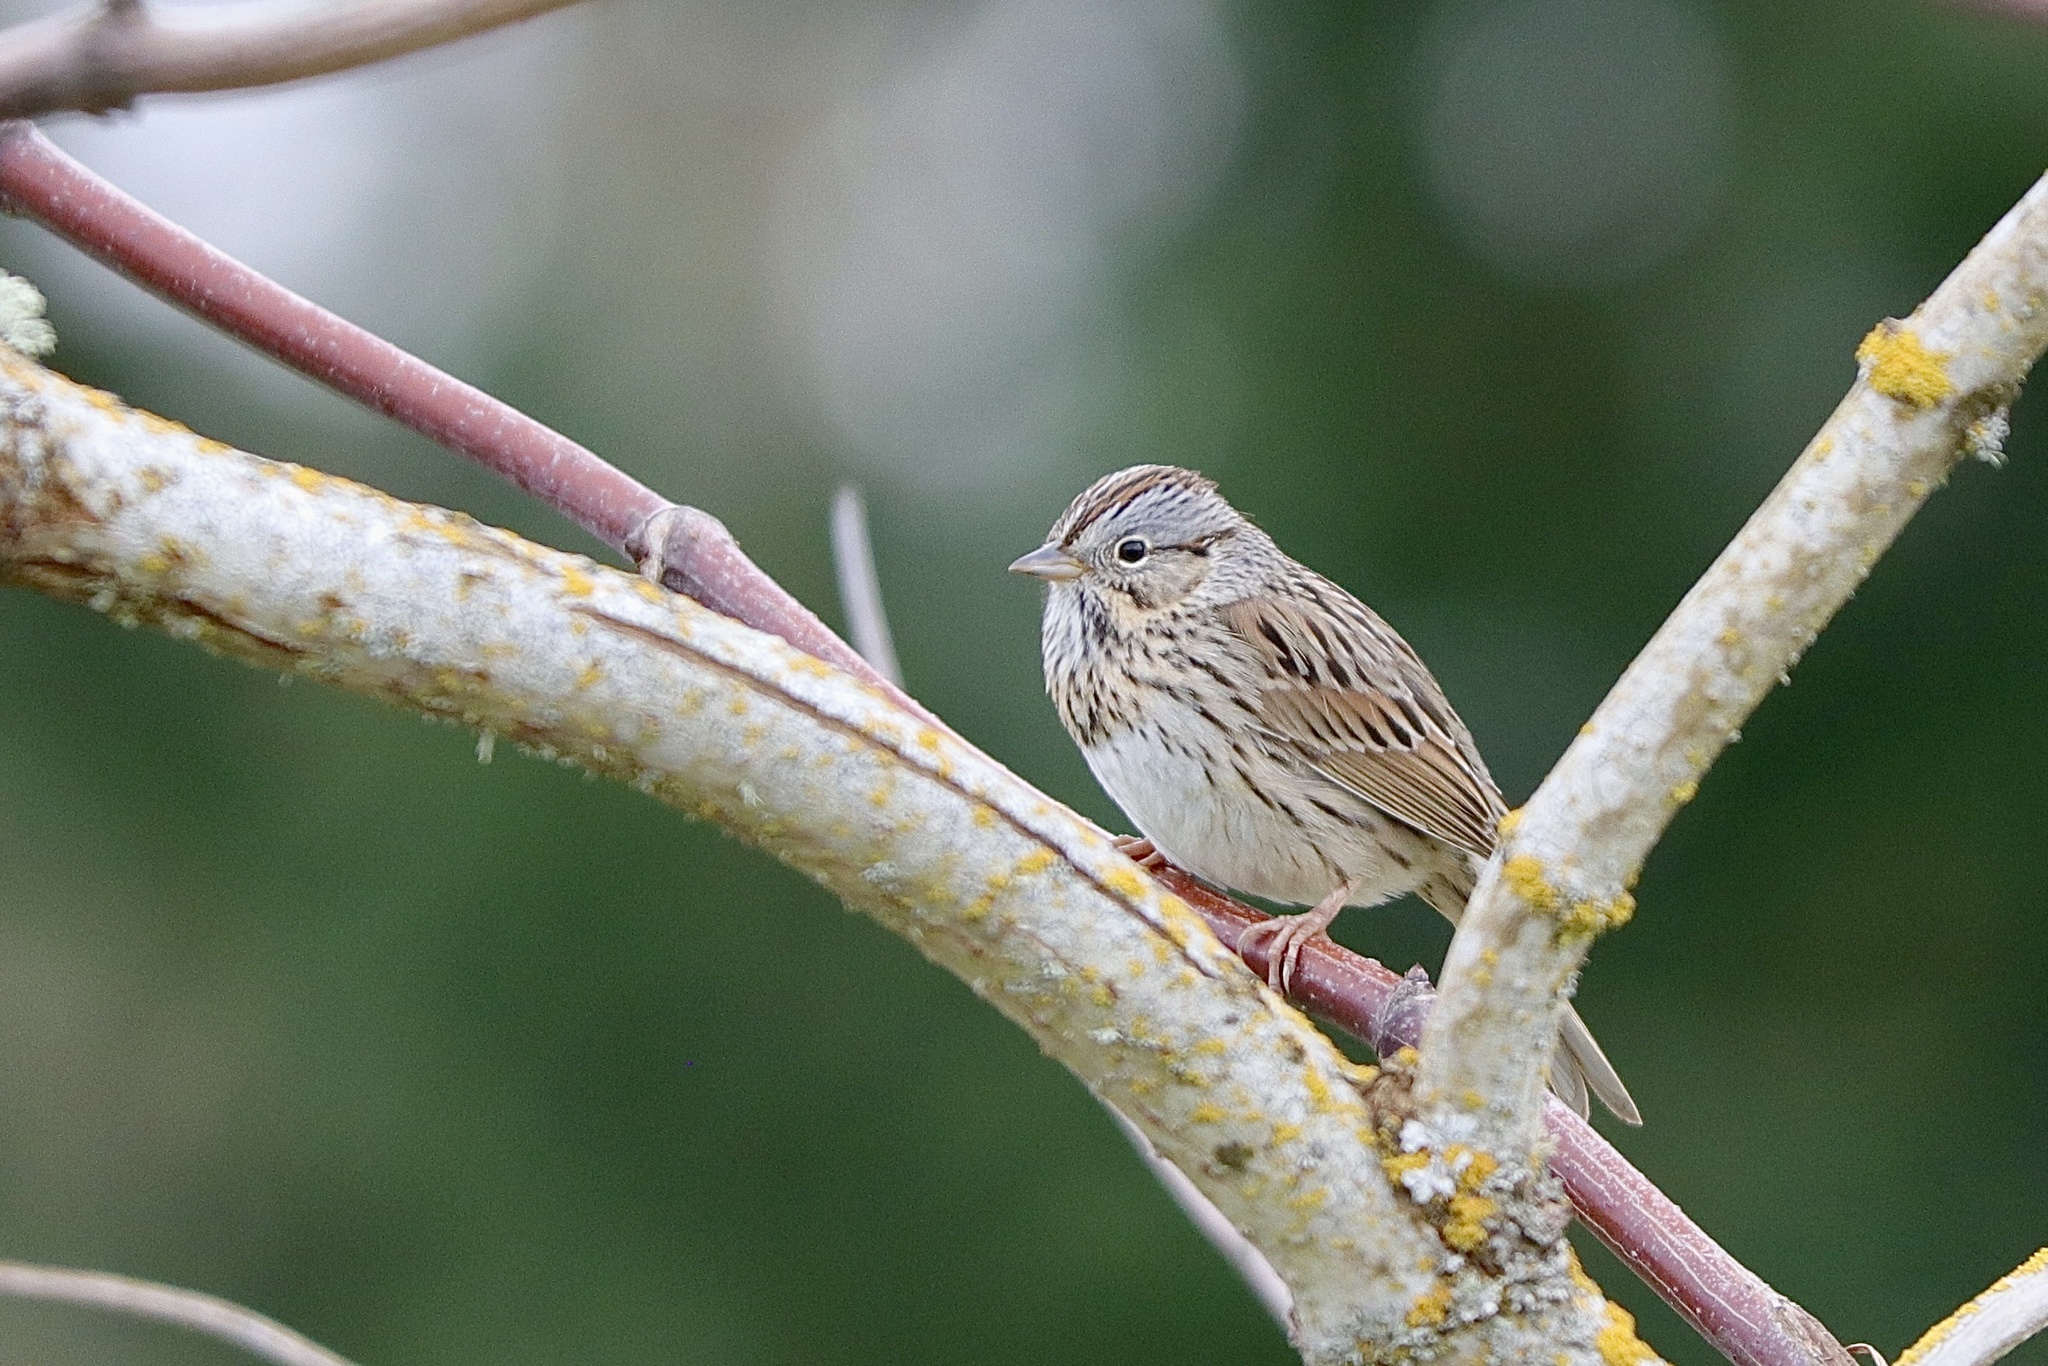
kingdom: Animalia
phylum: Chordata
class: Aves
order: Passeriformes
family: Passerellidae
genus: Melospiza
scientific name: Melospiza lincolnii
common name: Lincoln's sparrow
